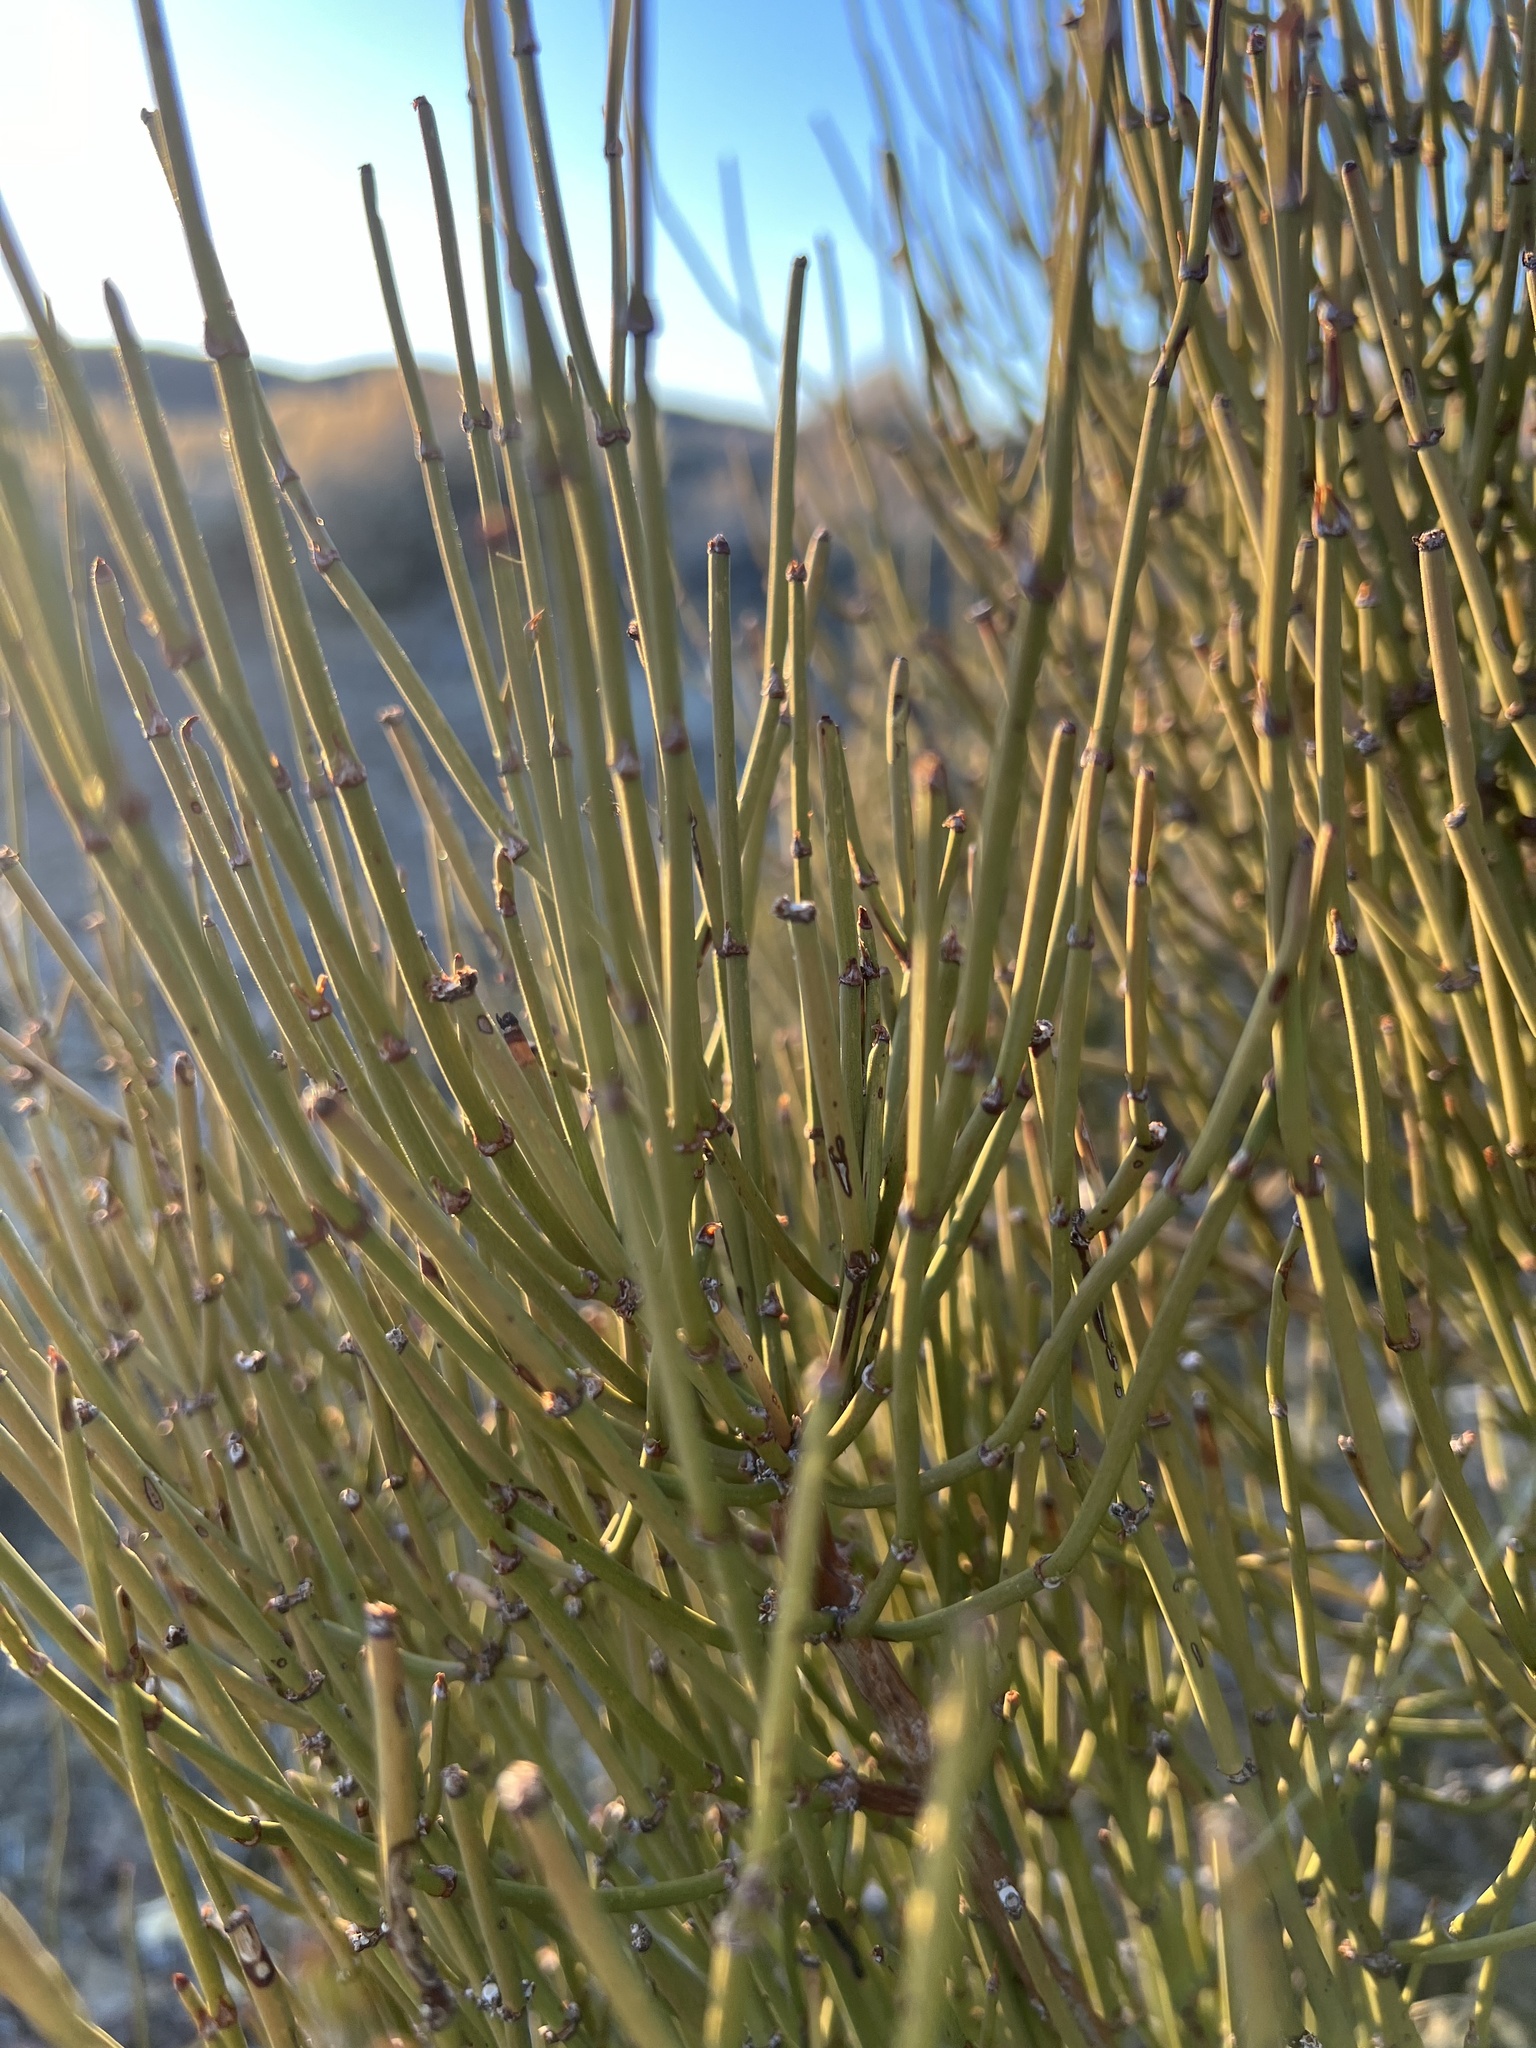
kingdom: Plantae
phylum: Tracheophyta
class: Gnetopsida
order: Ephedrales
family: Ephedraceae
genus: Ephedra
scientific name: Ephedra viridis
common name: Green ephedra
